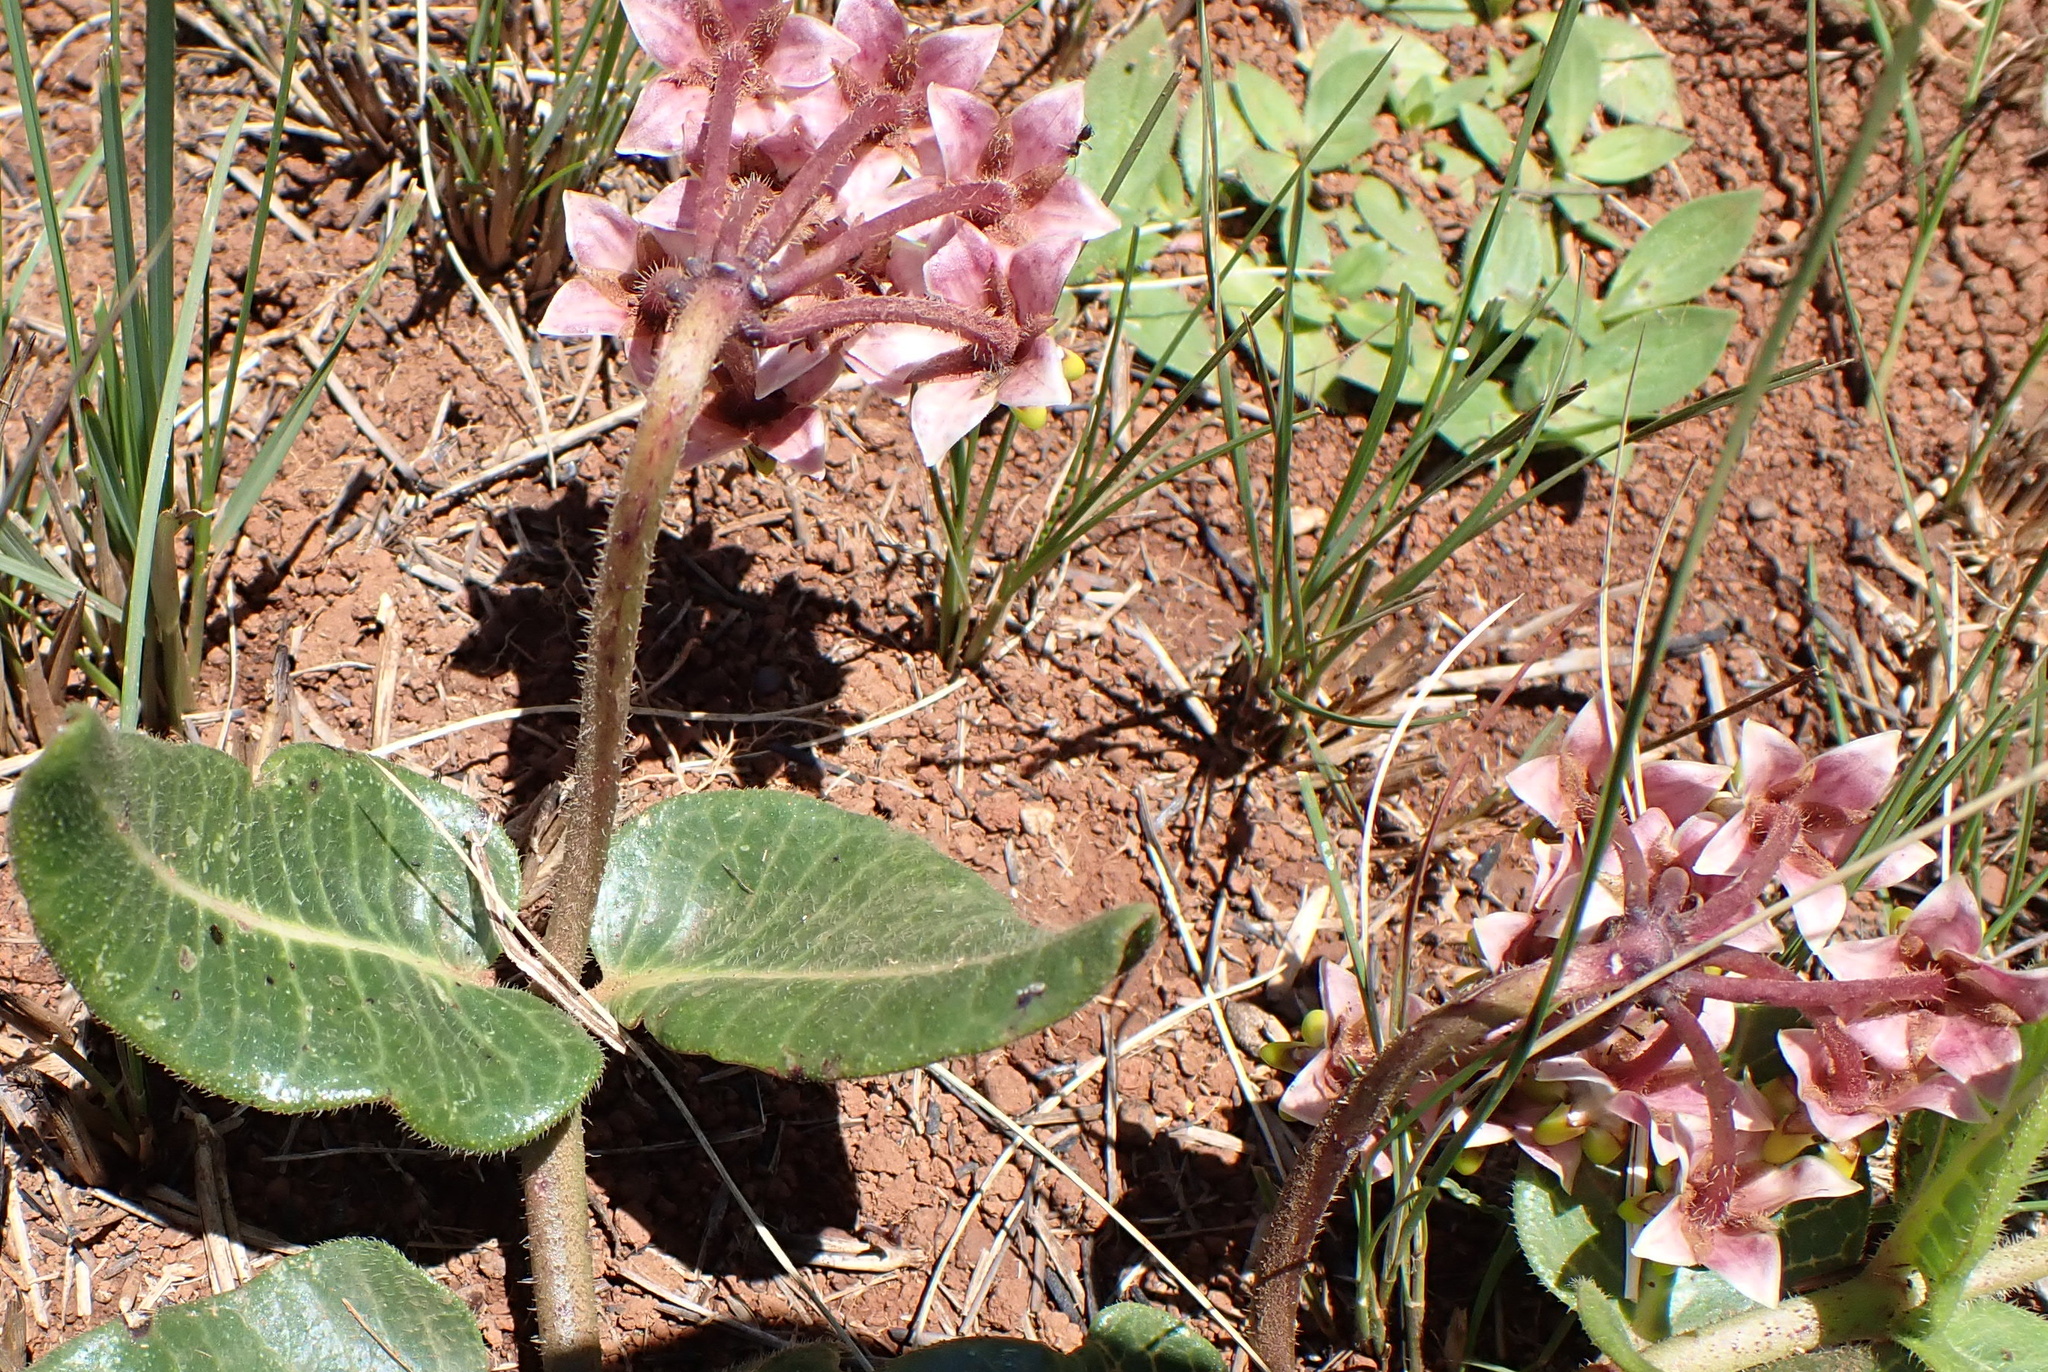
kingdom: Plantae
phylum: Tracheophyta
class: Magnoliopsida
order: Gentianales
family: Apocynaceae
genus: Asclepias
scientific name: Asclepias albens
